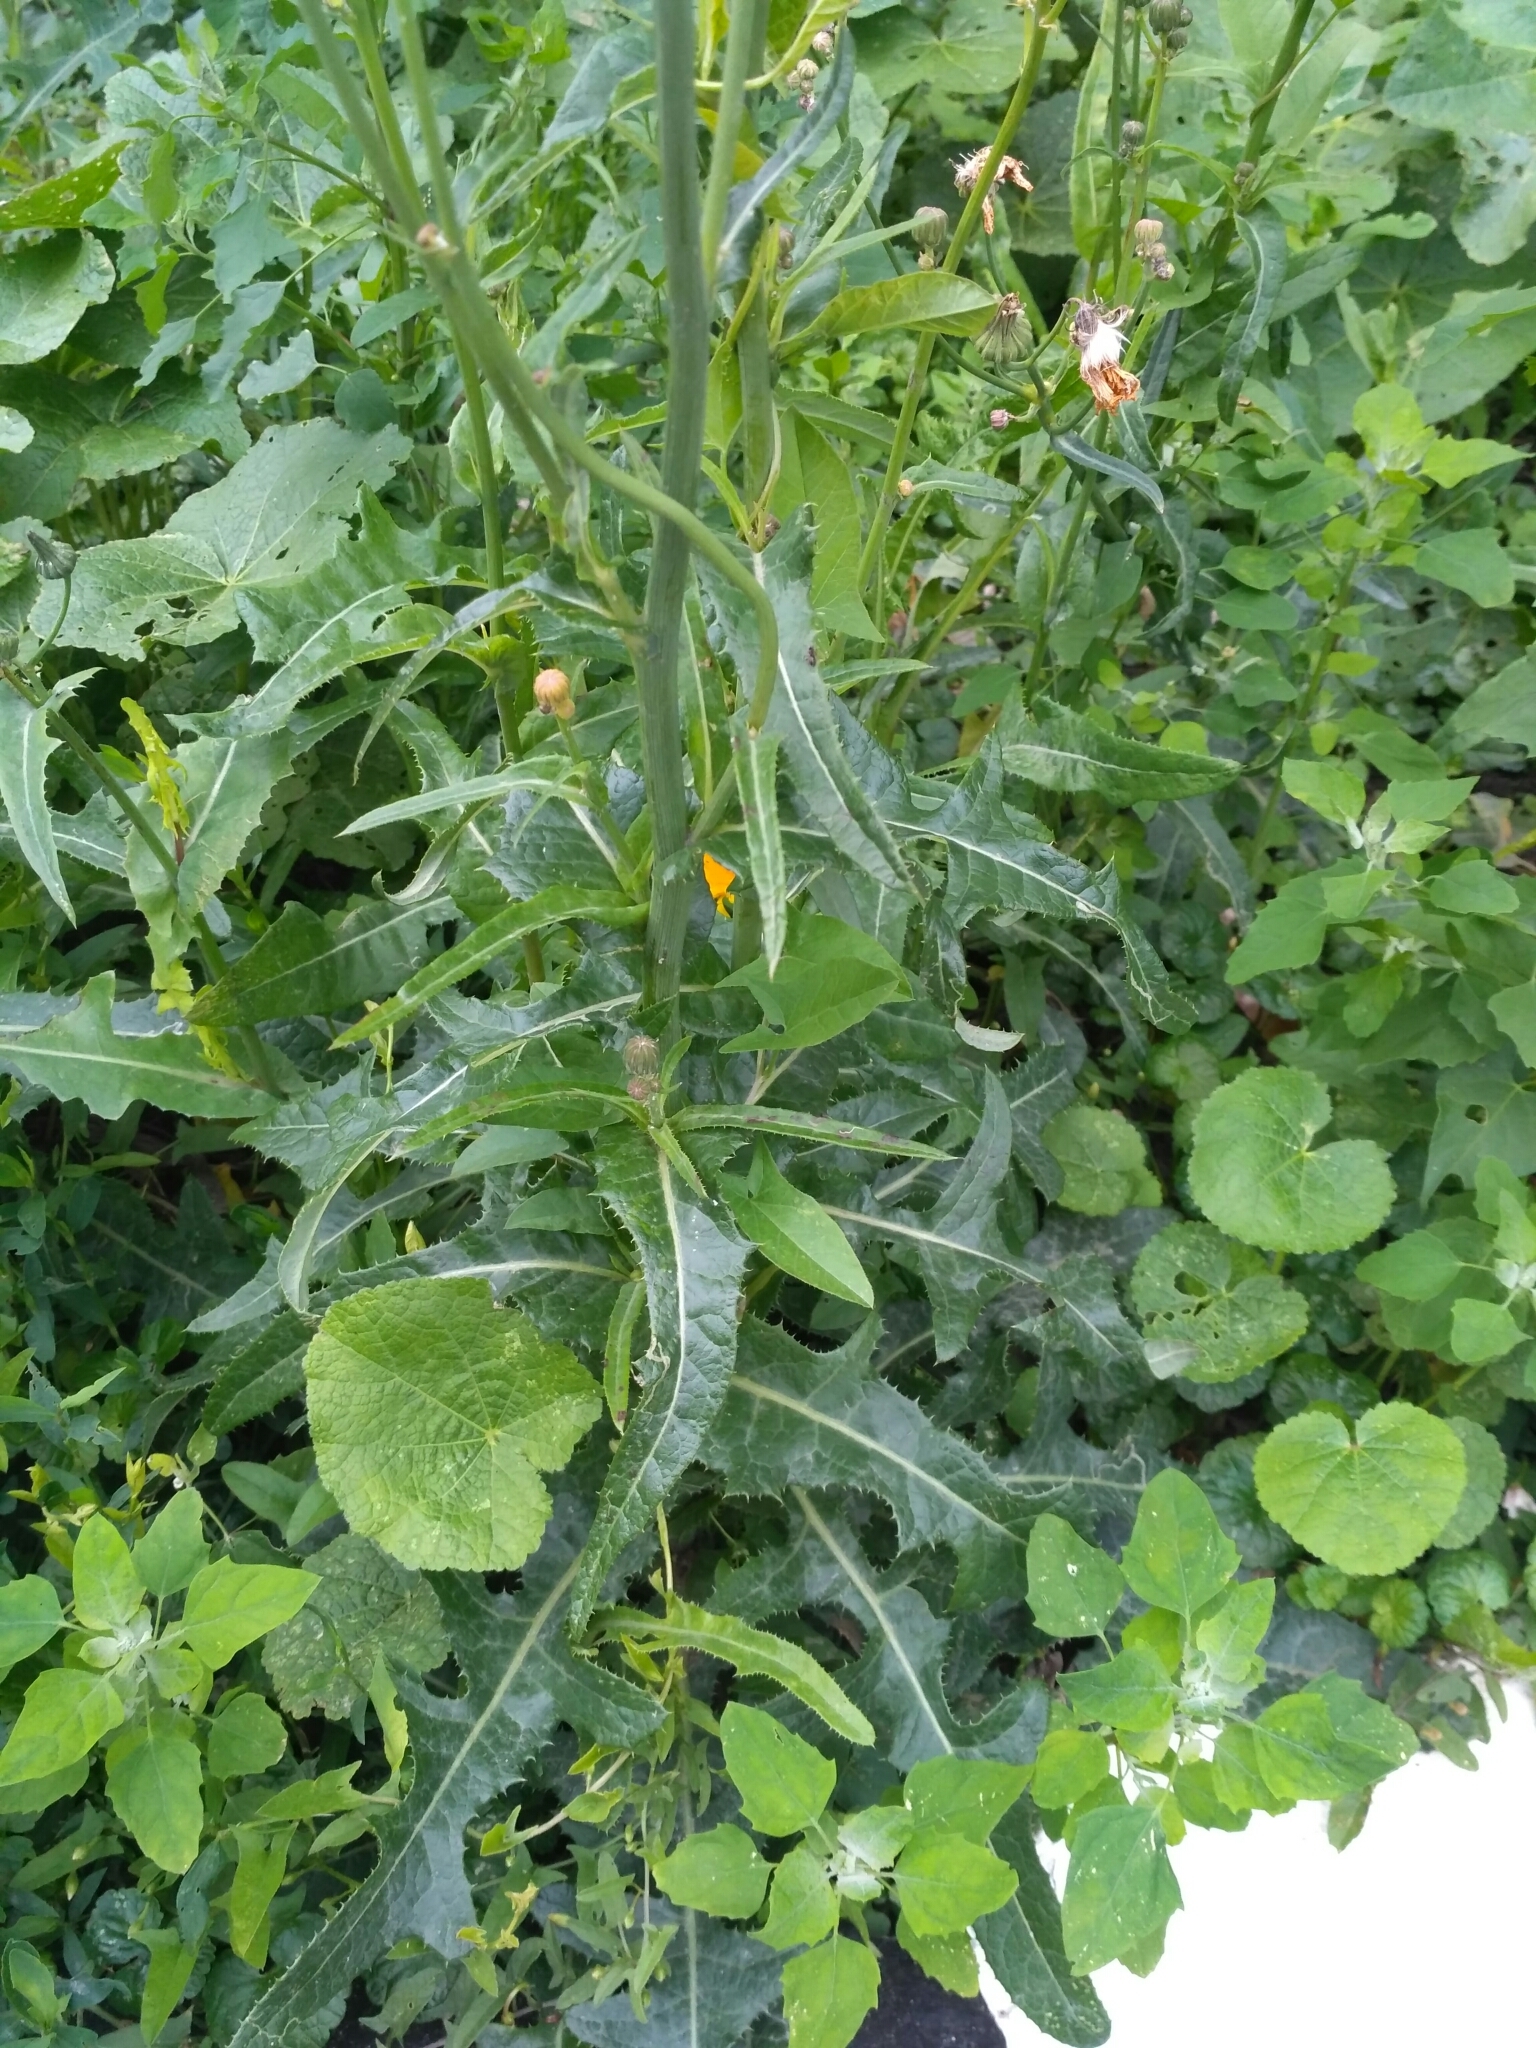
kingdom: Plantae
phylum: Tracheophyta
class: Magnoliopsida
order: Asterales
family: Asteraceae
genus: Sonchus
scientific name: Sonchus arvensis
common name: Perennial sow-thistle
